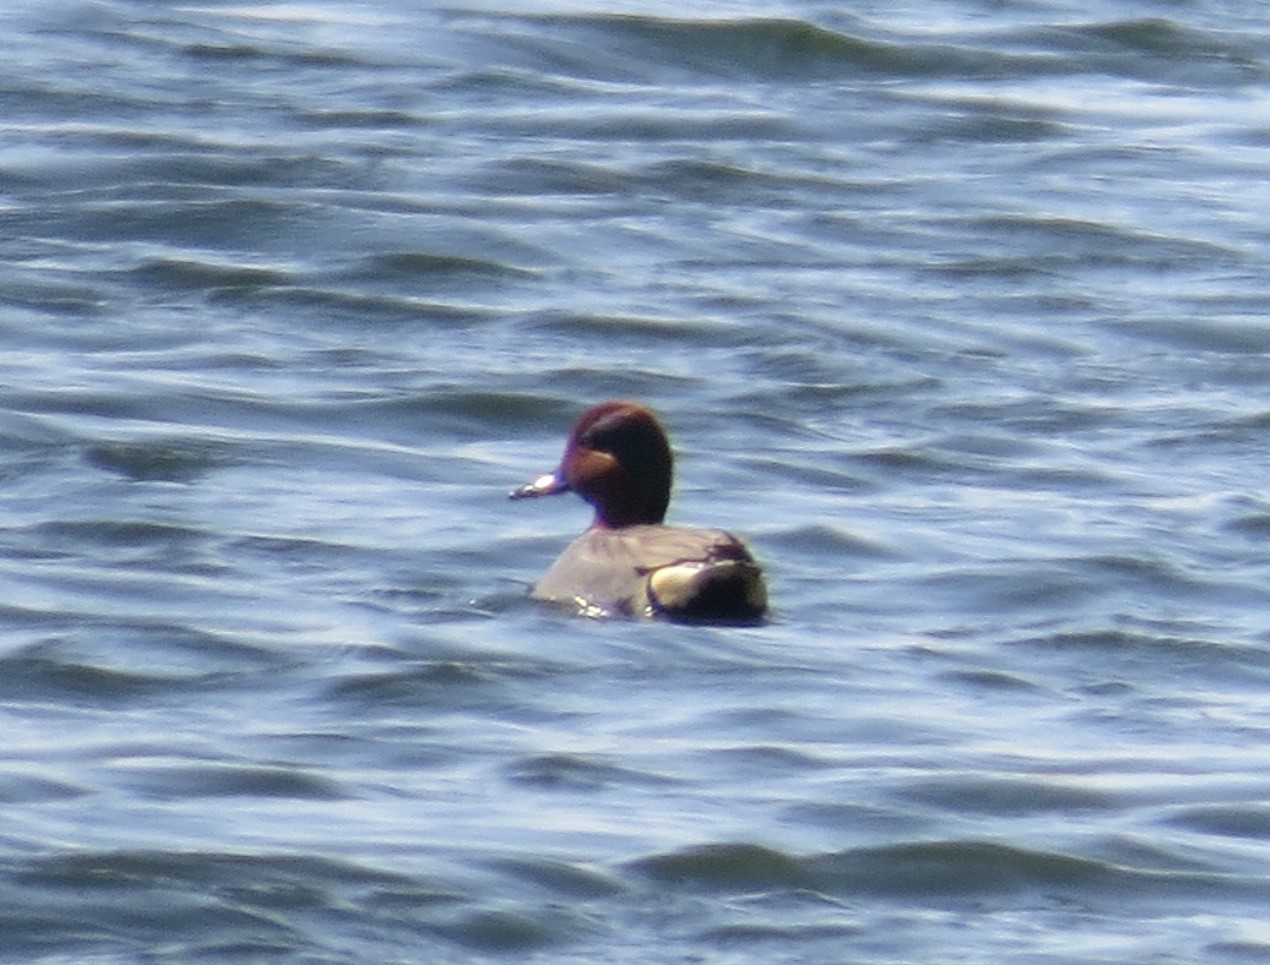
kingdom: Animalia
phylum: Chordata
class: Aves
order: Anseriformes
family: Anatidae
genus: Anas
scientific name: Anas crecca
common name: Eurasian teal
